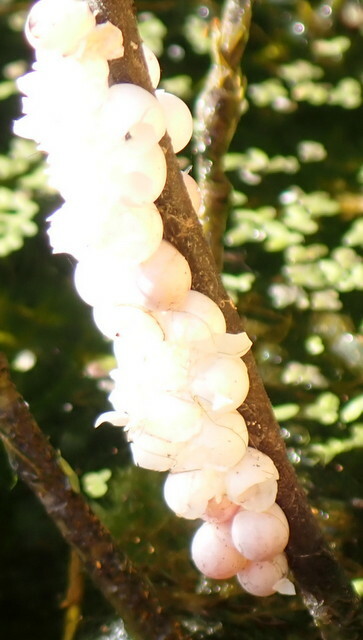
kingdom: Animalia
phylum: Mollusca
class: Gastropoda
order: Architaenioglossa
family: Ampullariidae
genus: Pomacea
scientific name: Pomacea paludosa
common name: Florida applesnail
